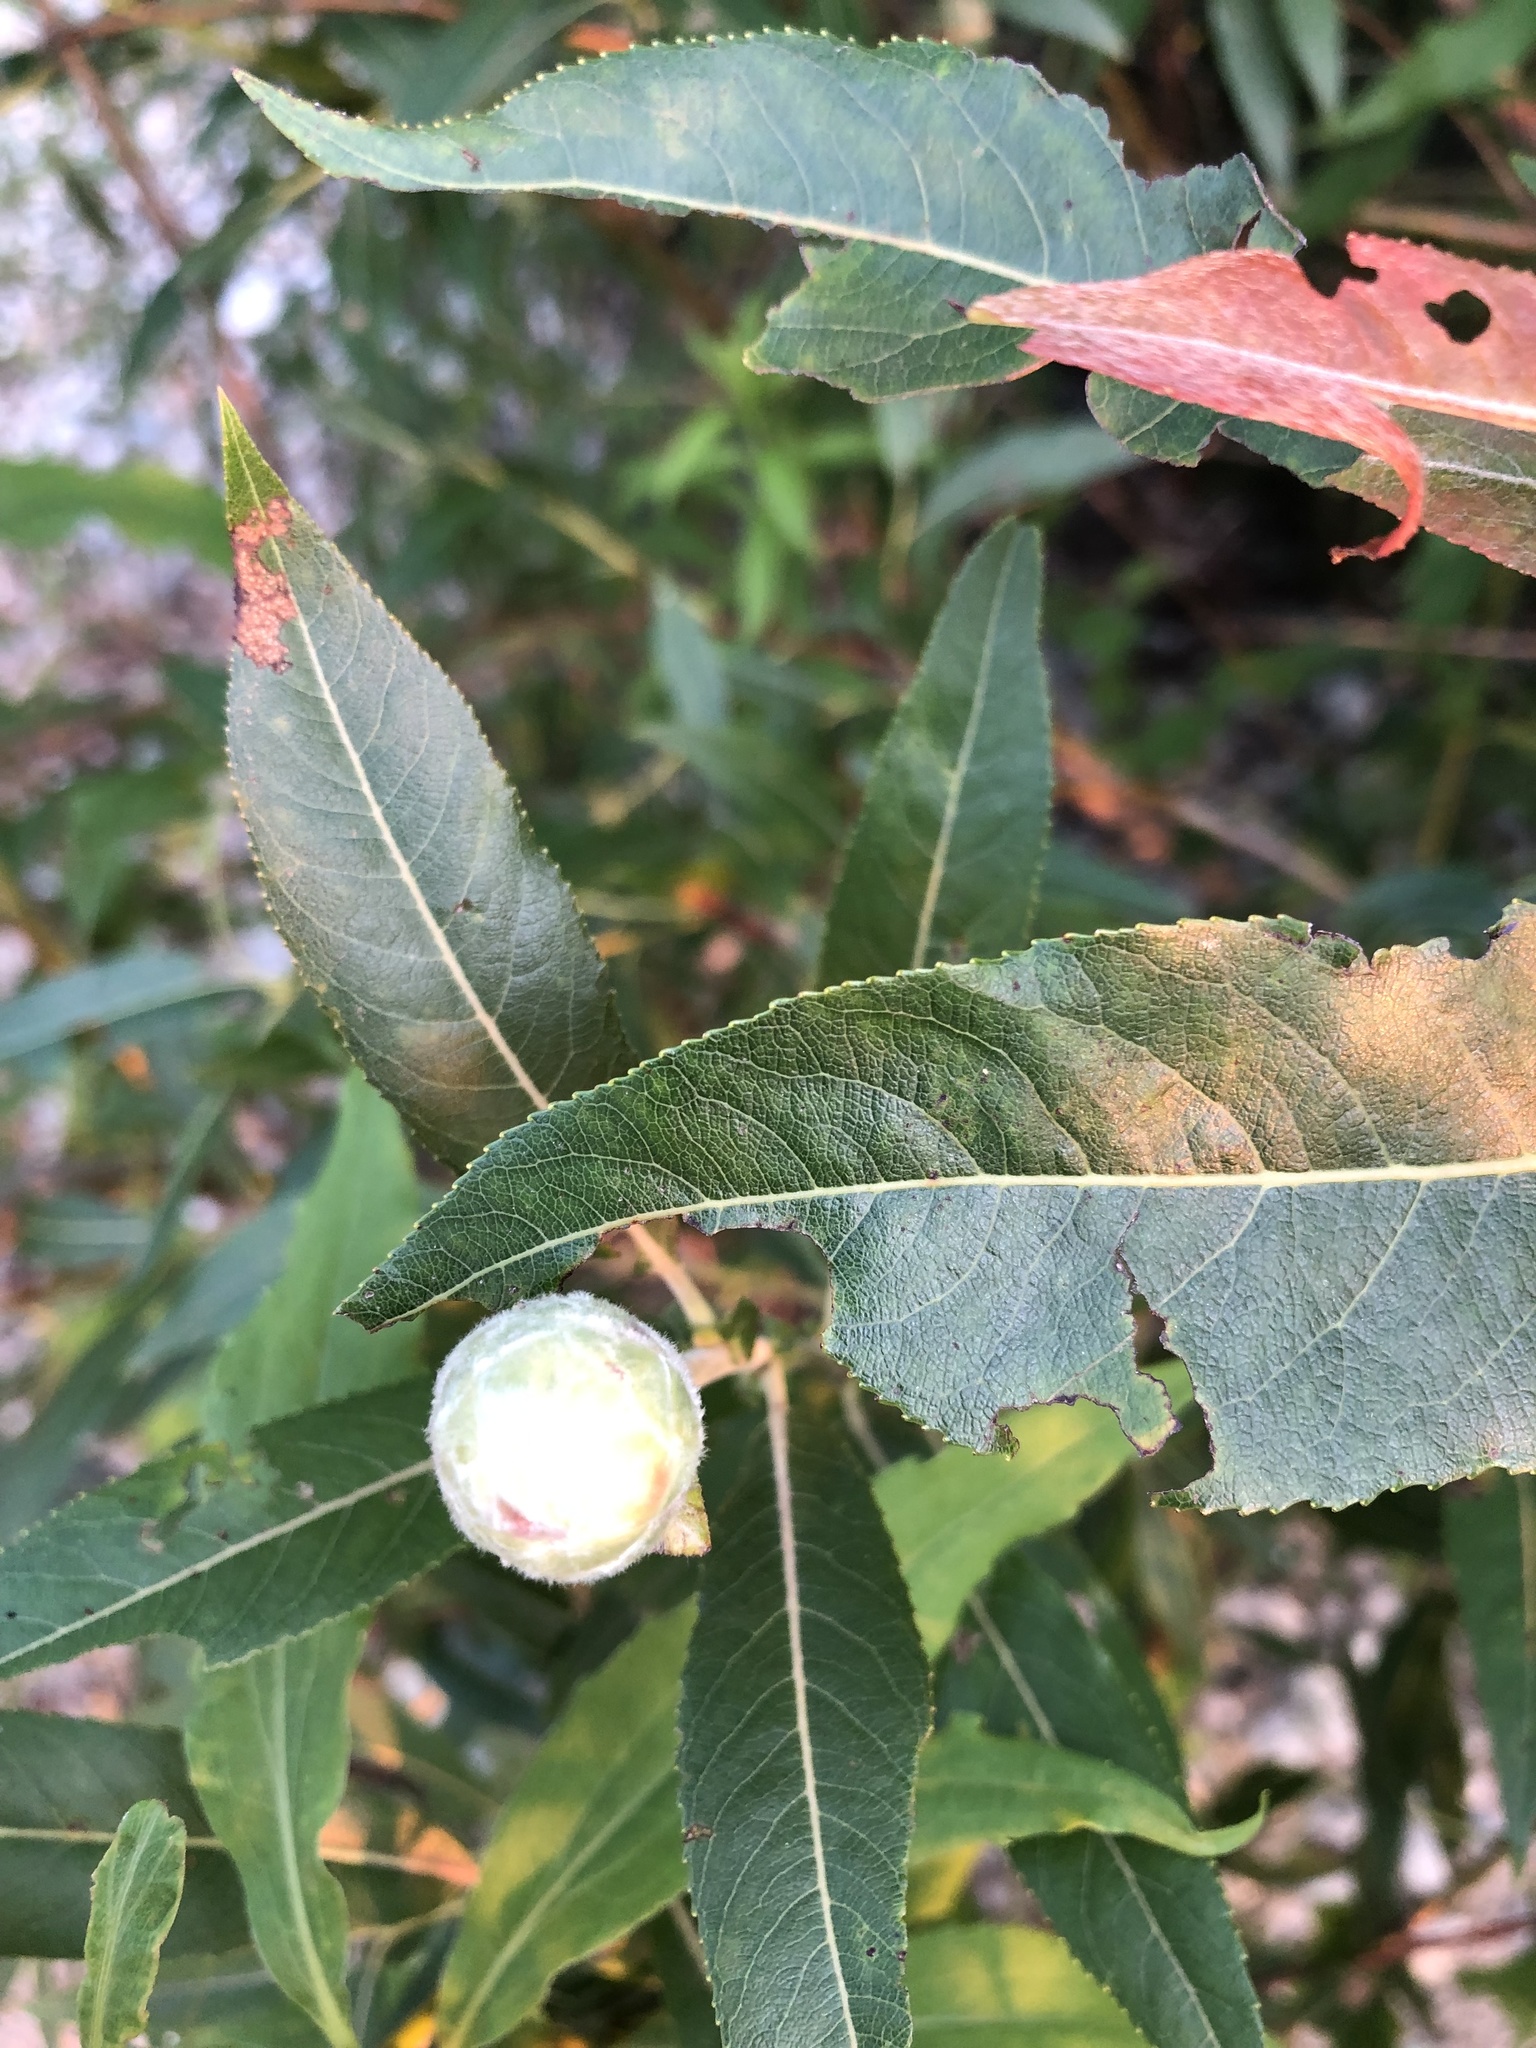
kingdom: Animalia
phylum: Arthropoda
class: Insecta
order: Diptera
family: Cecidomyiidae
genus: Rabdophaga
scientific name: Rabdophaga strobiloides
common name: Willow pinecone gall midge
